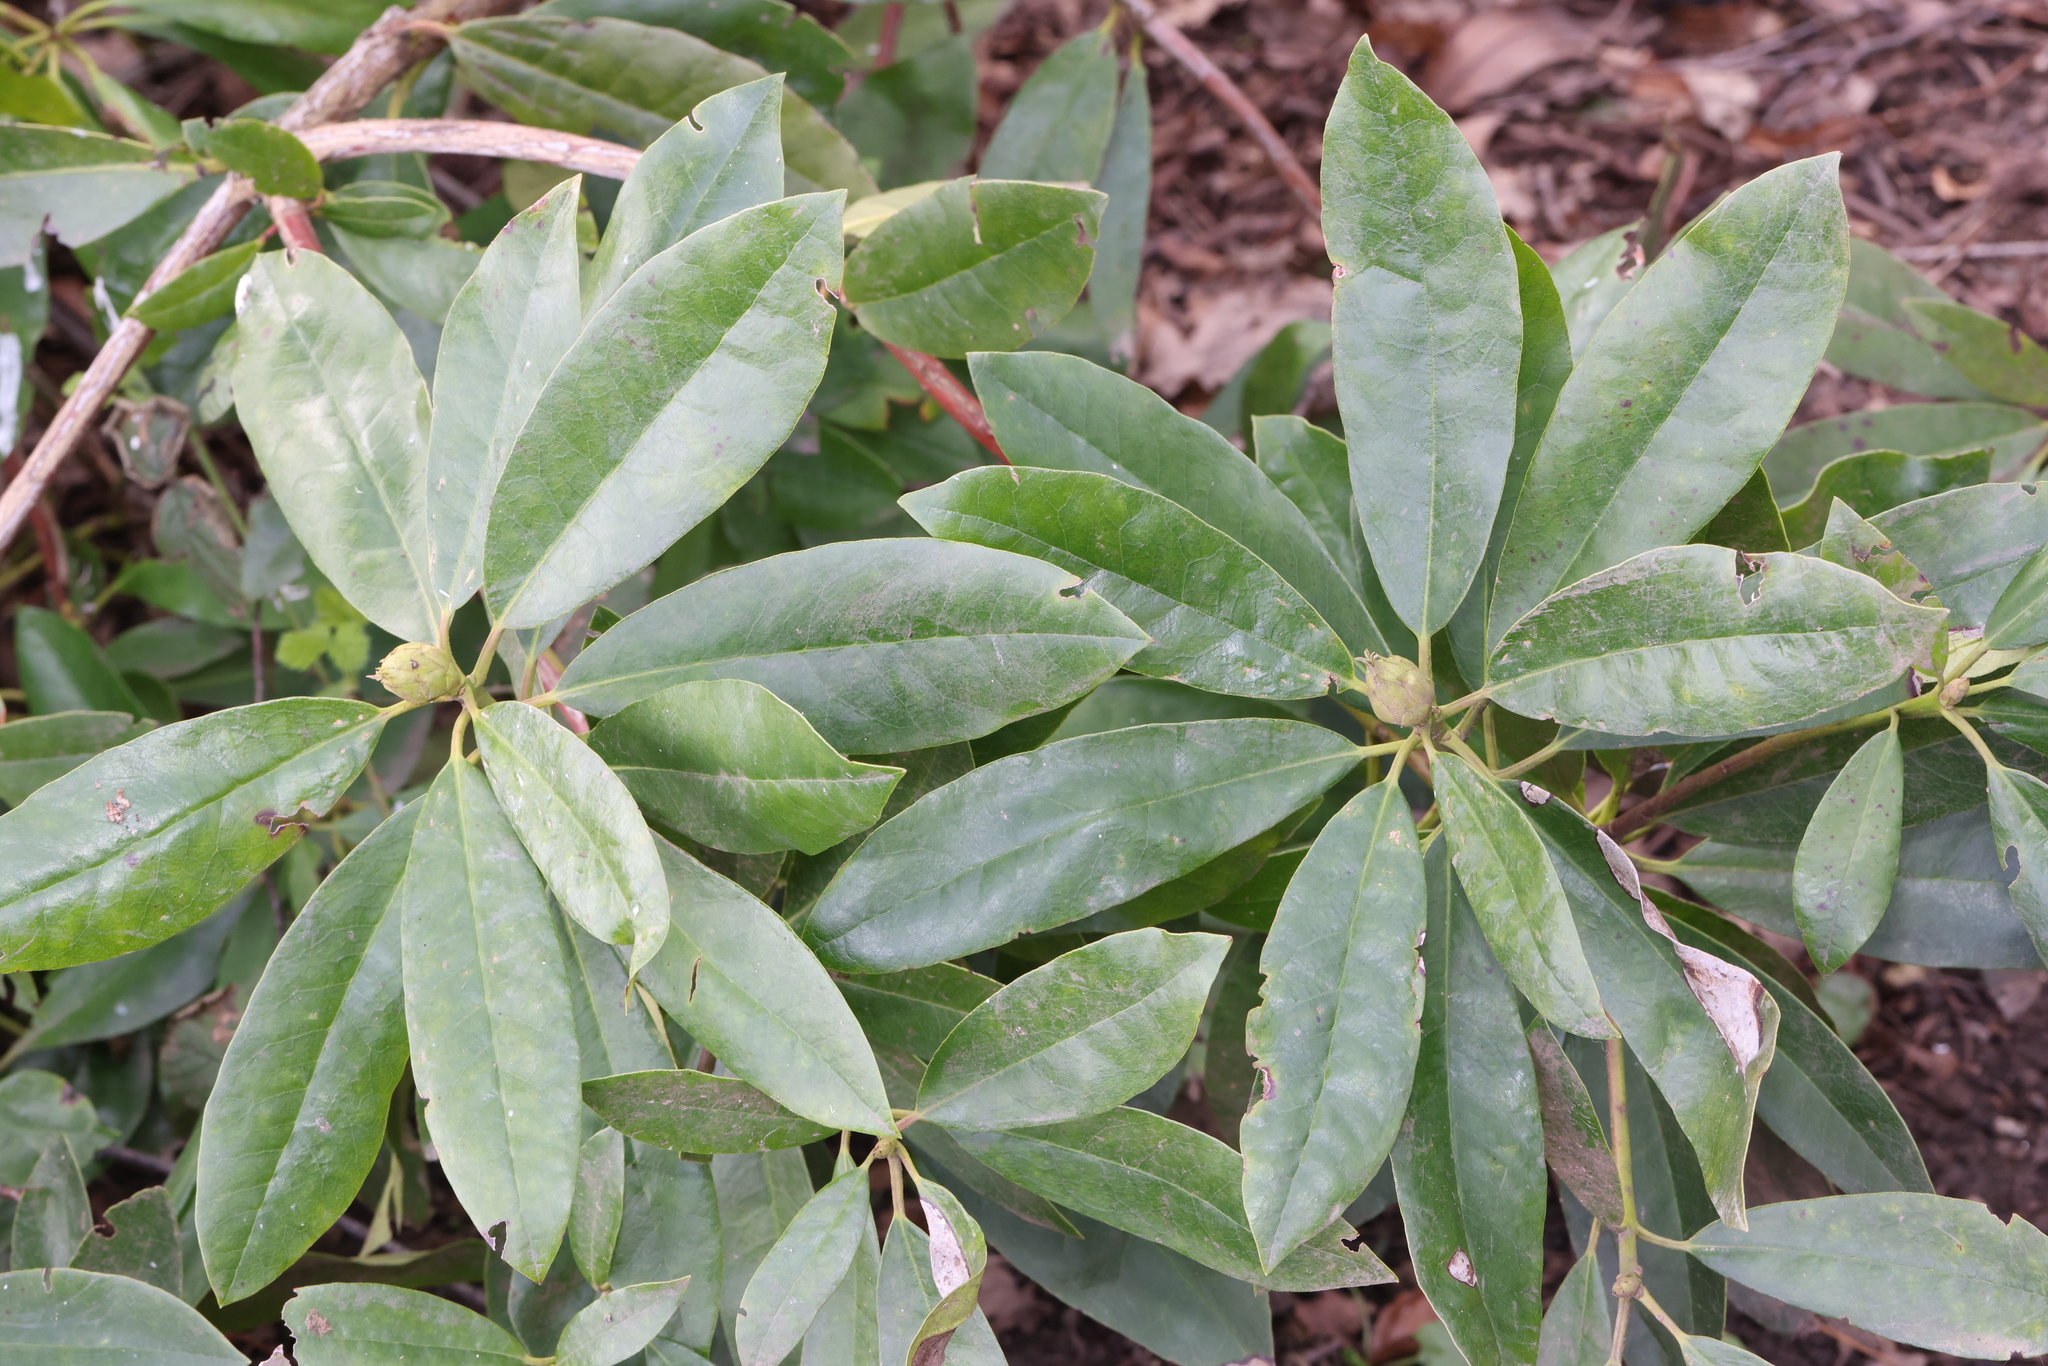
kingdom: Plantae
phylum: Tracheophyta
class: Magnoliopsida
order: Ericales
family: Ericaceae
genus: Rhododendron
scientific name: Rhododendron ponticum
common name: Rhododendron
